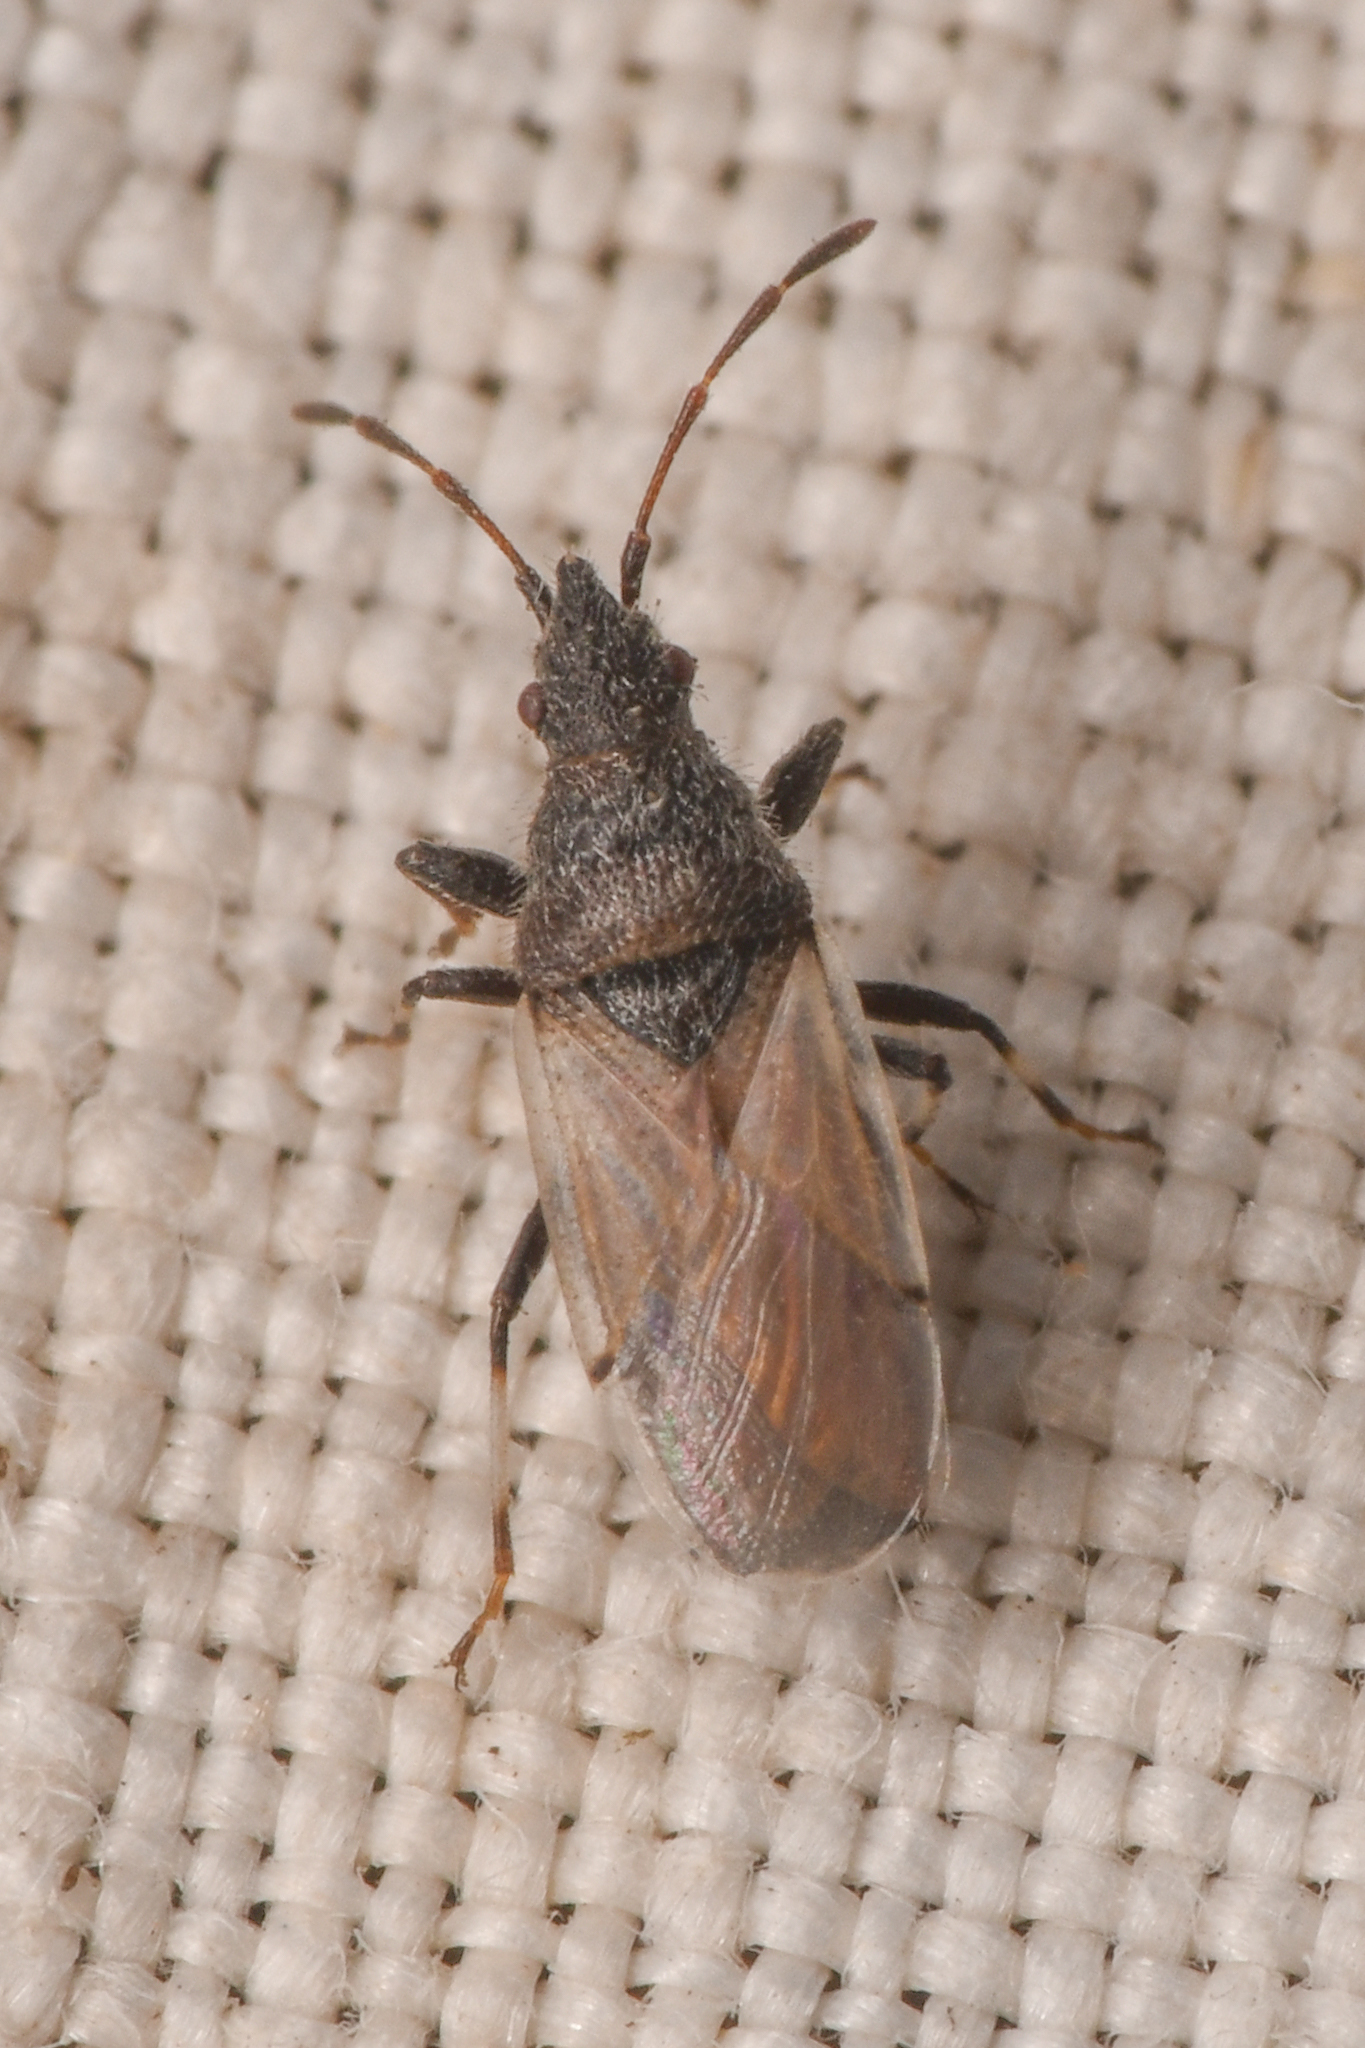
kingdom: Animalia
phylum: Arthropoda
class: Insecta
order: Hemiptera
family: Oxycarenidae
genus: Oxycarenus
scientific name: Oxycarenus hyalinipennis
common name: Cotton seed bug
